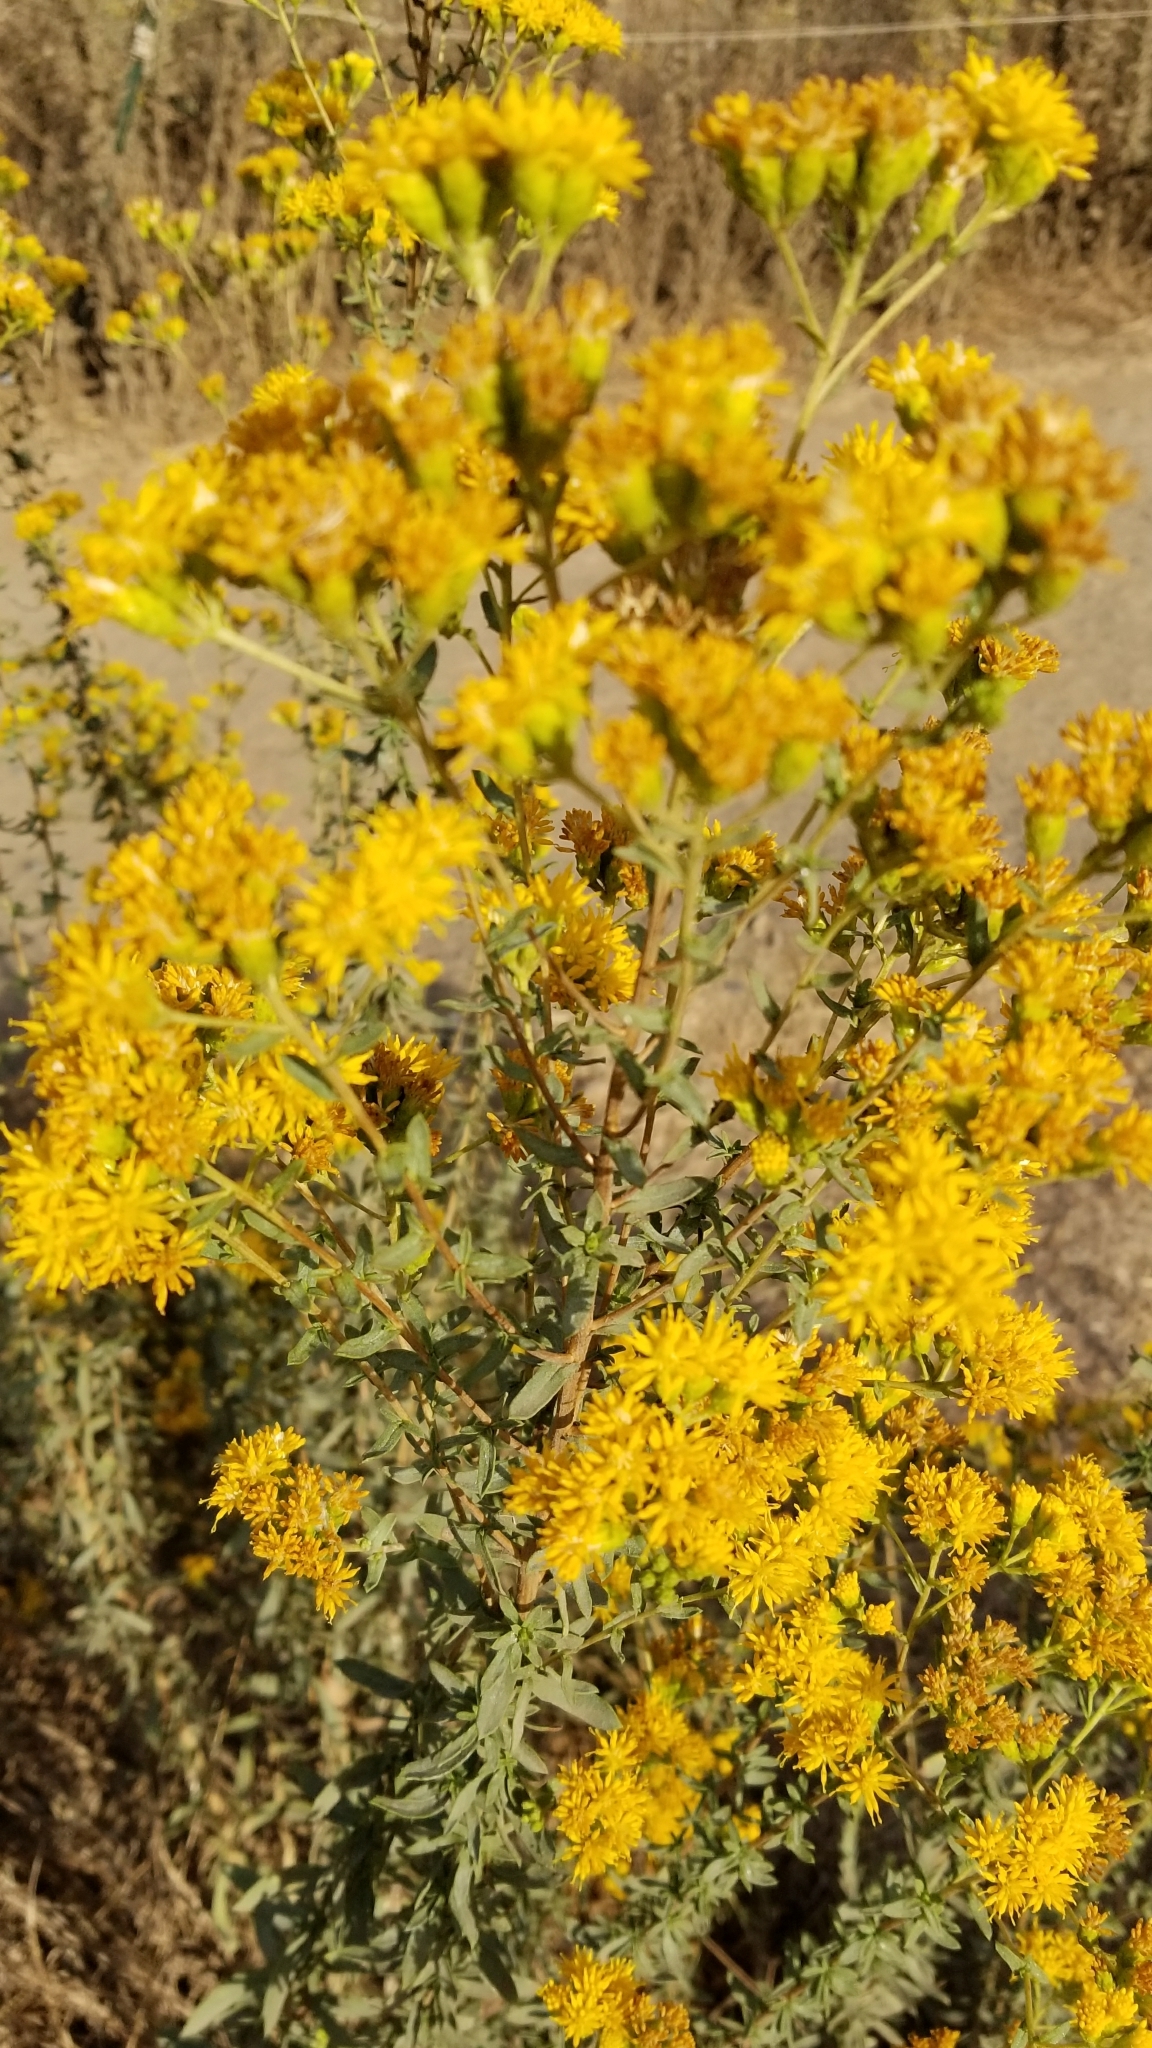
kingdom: Plantae
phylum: Tracheophyta
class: Magnoliopsida
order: Asterales
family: Asteraceae
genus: Heterotheca
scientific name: Heterotheca grandiflora
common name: Telegraphweed
